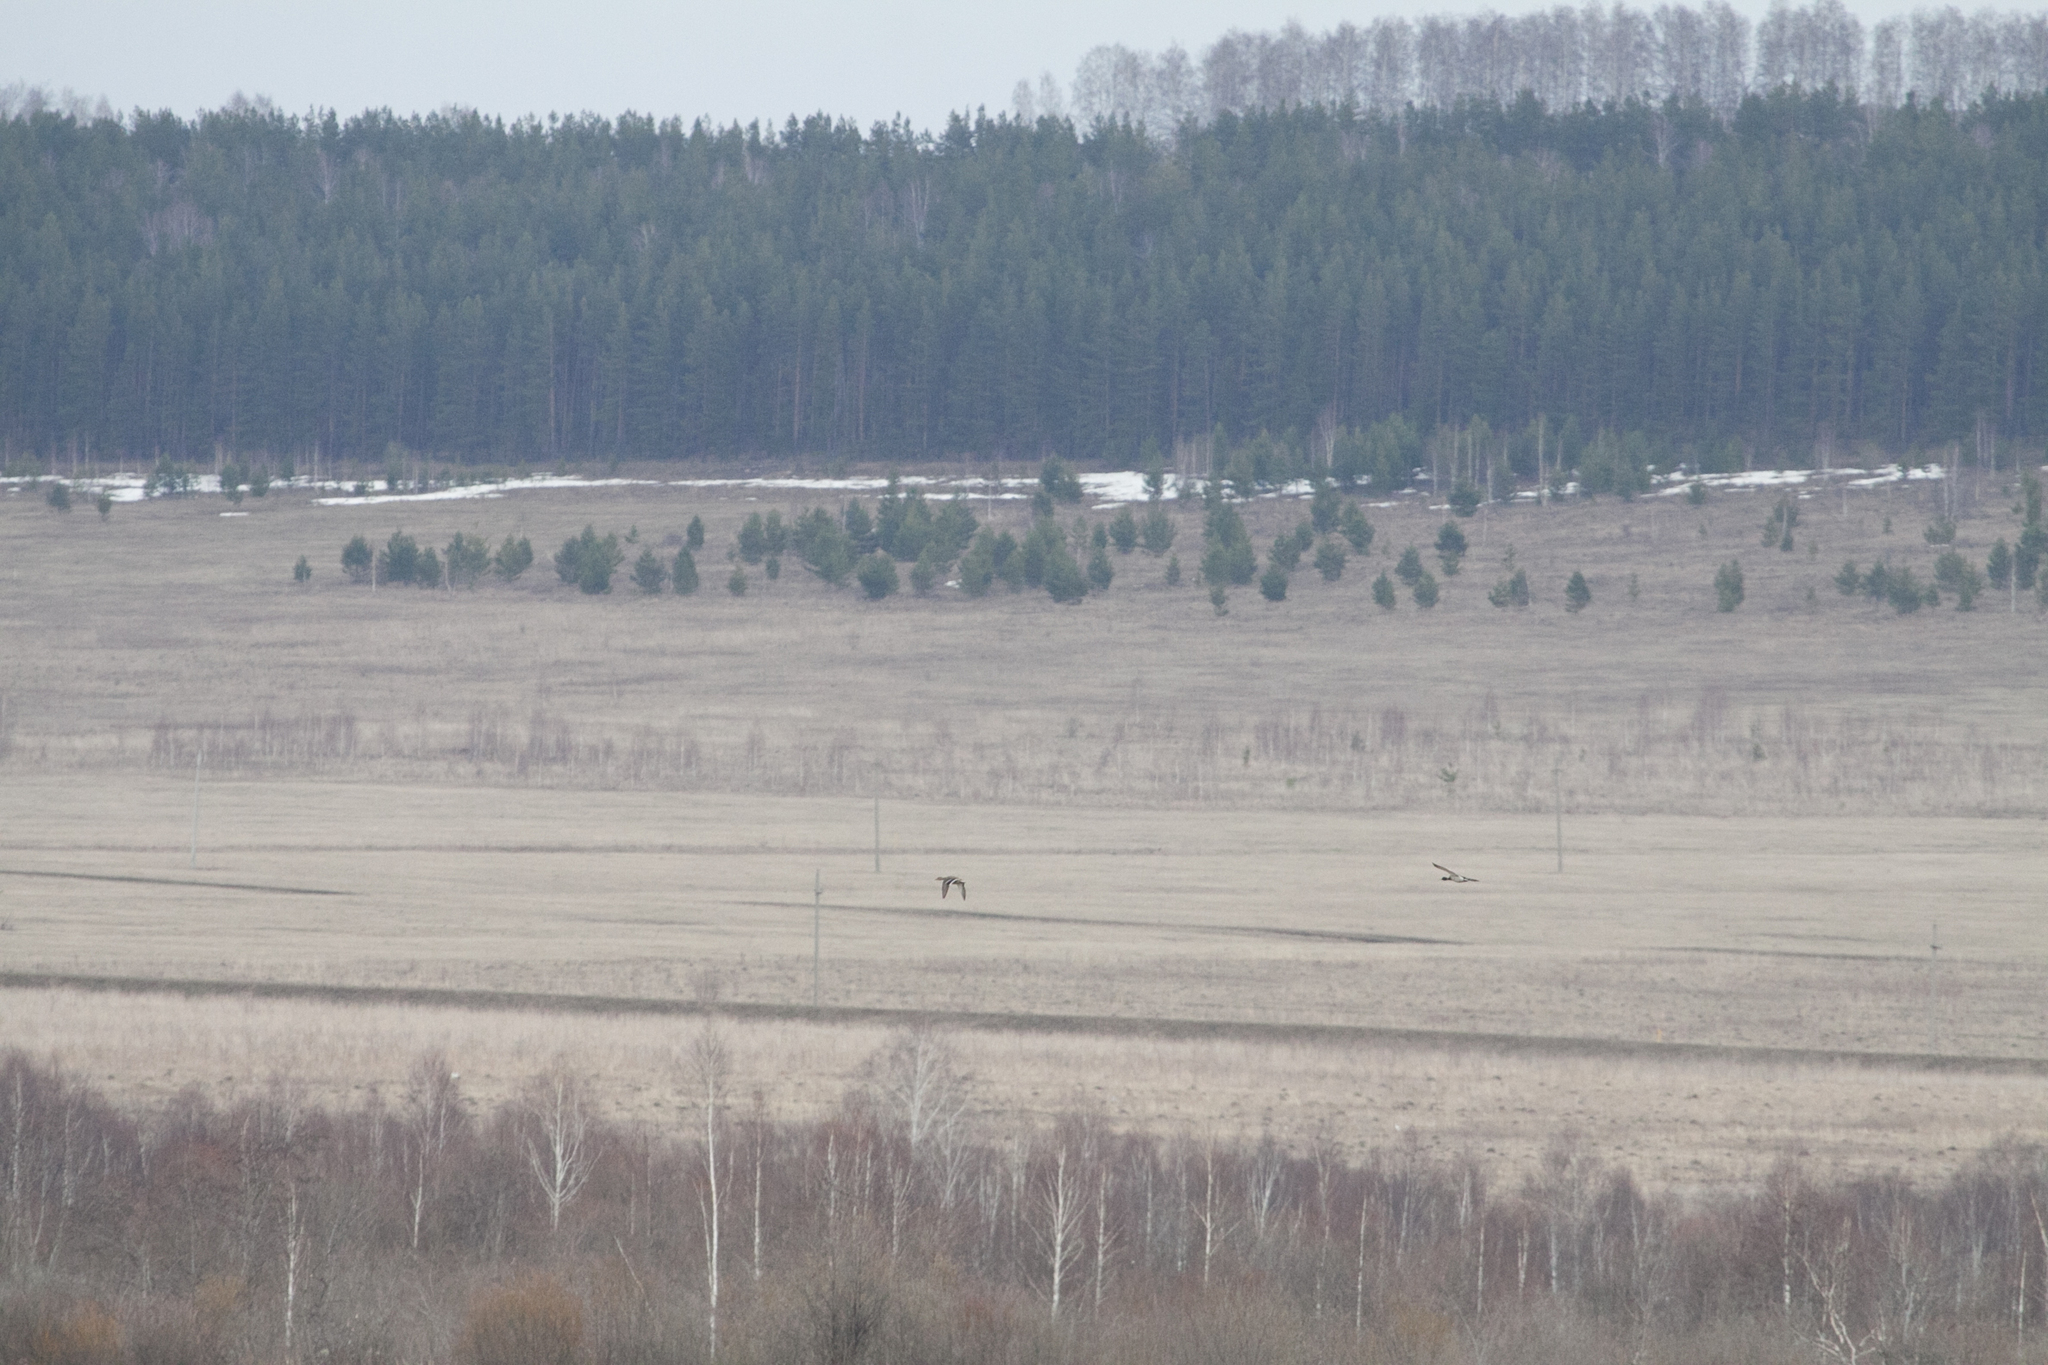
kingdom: Animalia
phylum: Chordata
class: Aves
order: Anseriformes
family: Anatidae
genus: Anas
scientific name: Anas platyrhynchos
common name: Mallard
